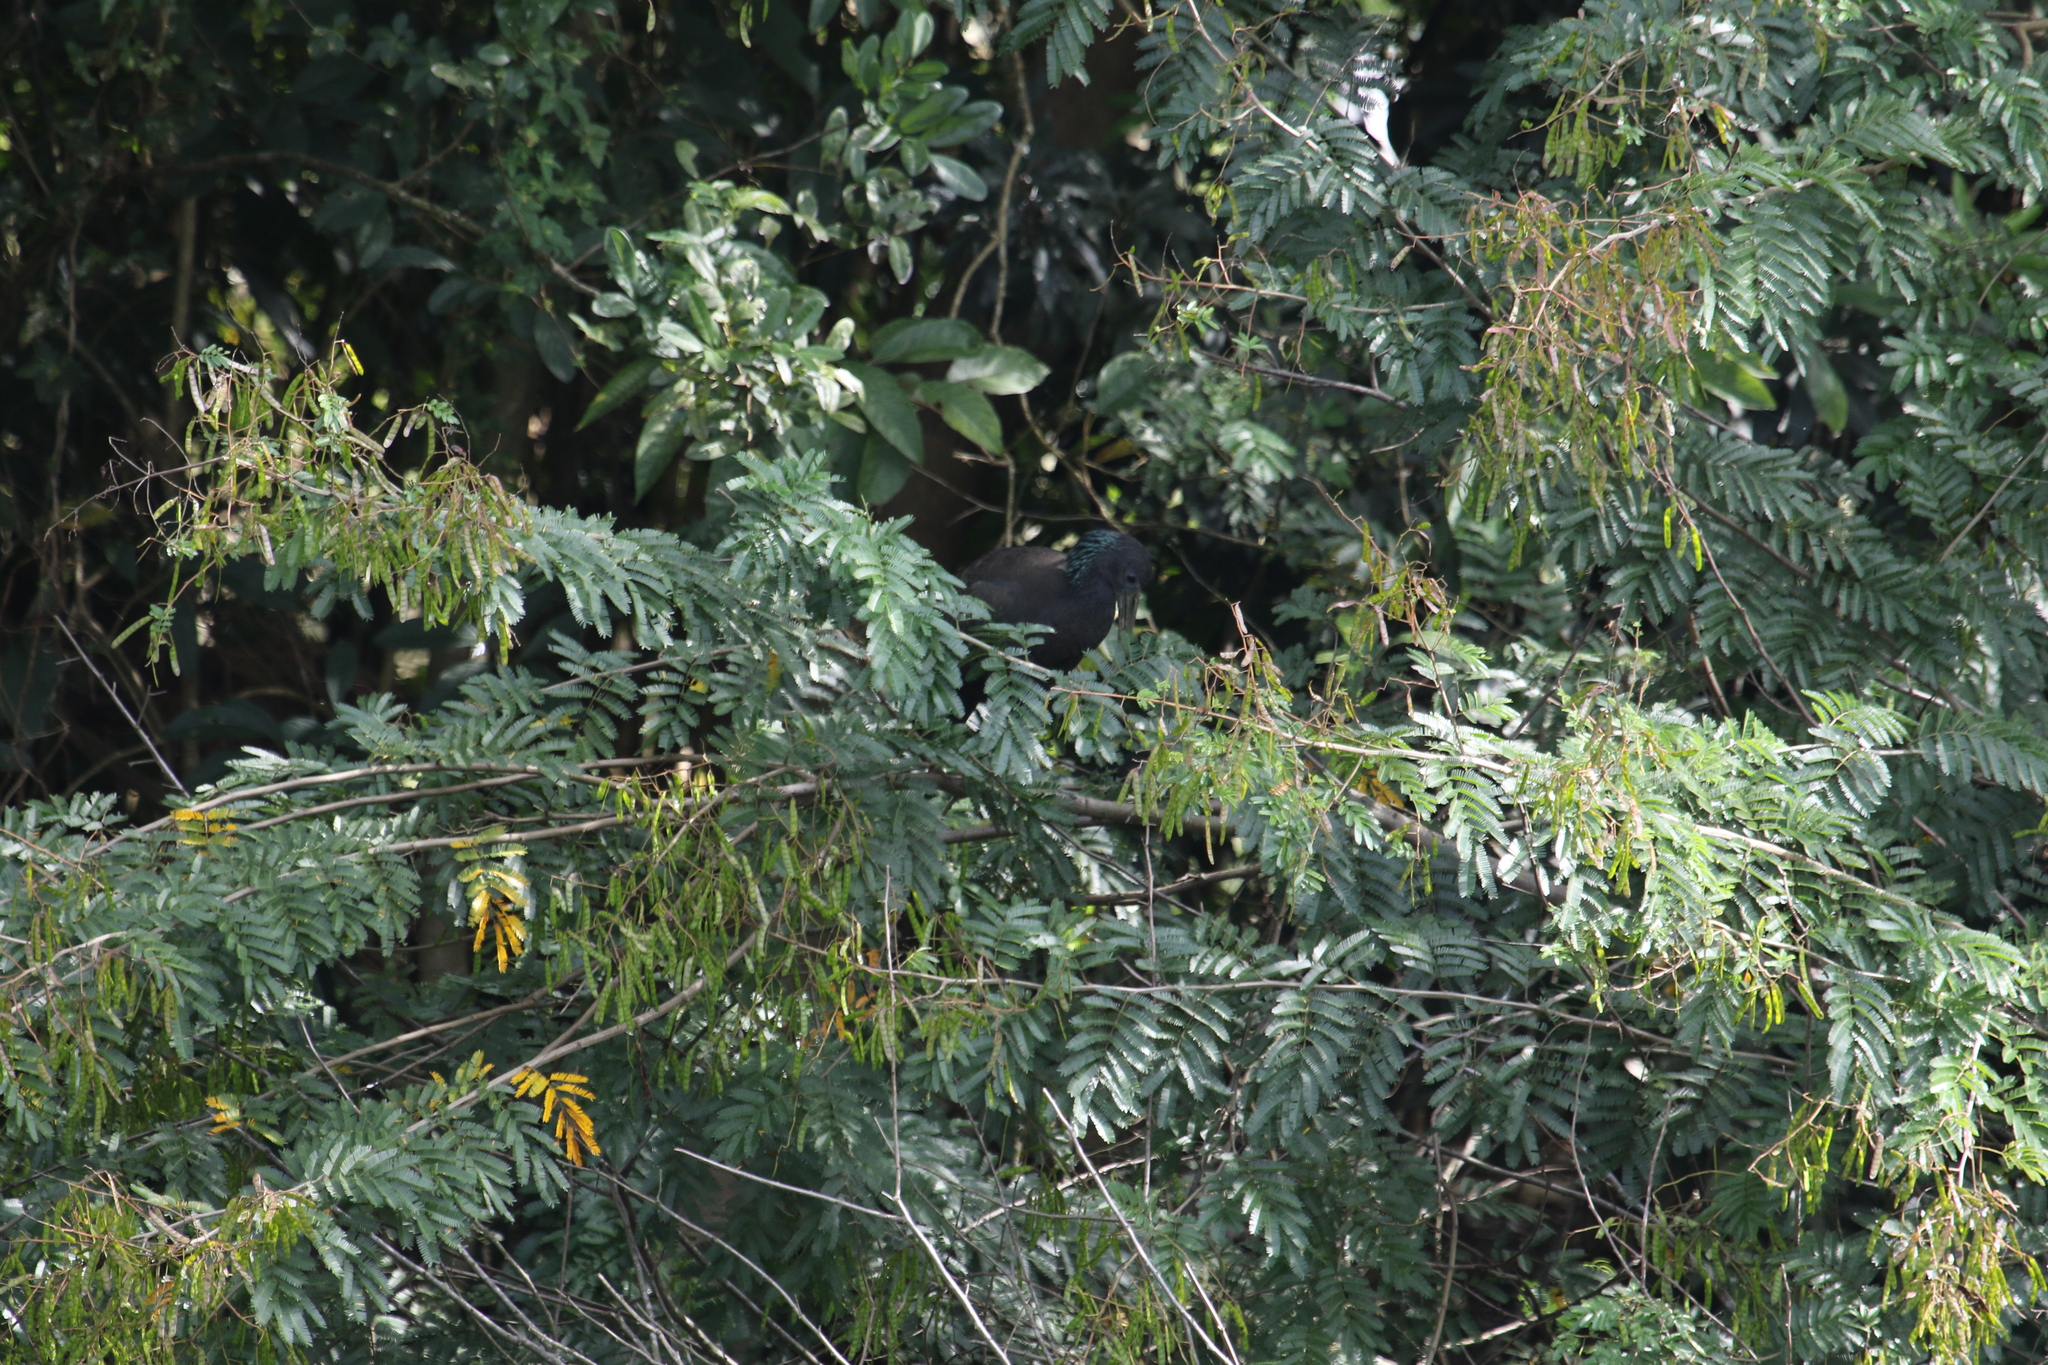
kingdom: Animalia
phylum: Chordata
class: Aves
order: Pelecaniformes
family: Threskiornithidae
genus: Mesembrinibis
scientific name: Mesembrinibis cayennensis
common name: Green ibis
